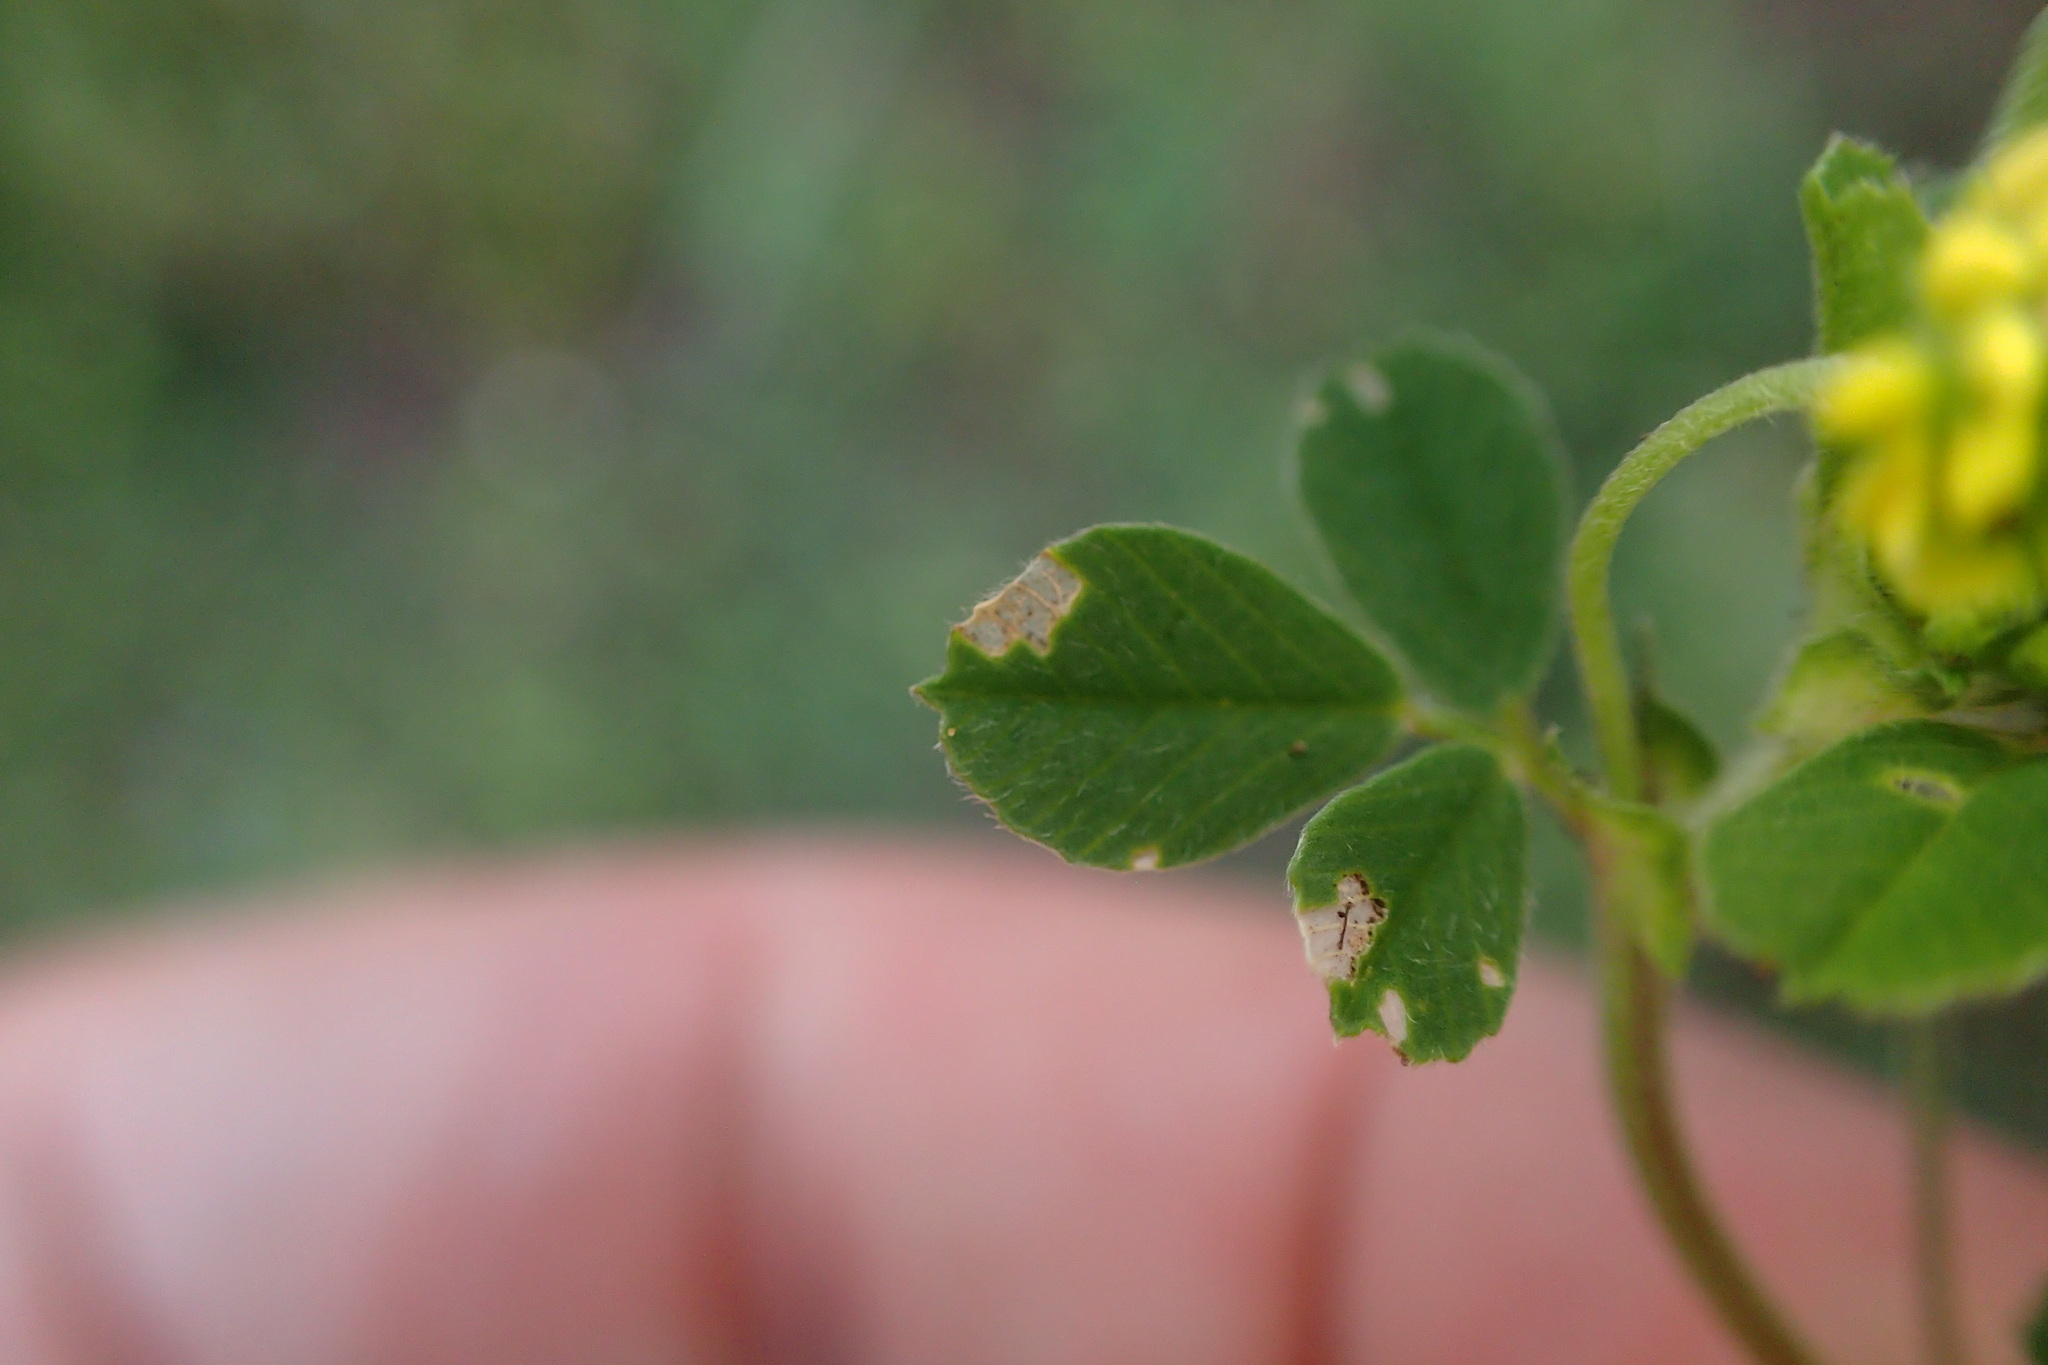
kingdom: Plantae
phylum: Tracheophyta
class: Magnoliopsida
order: Fabales
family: Fabaceae
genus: Medicago
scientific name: Medicago lupulina
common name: Black medick
